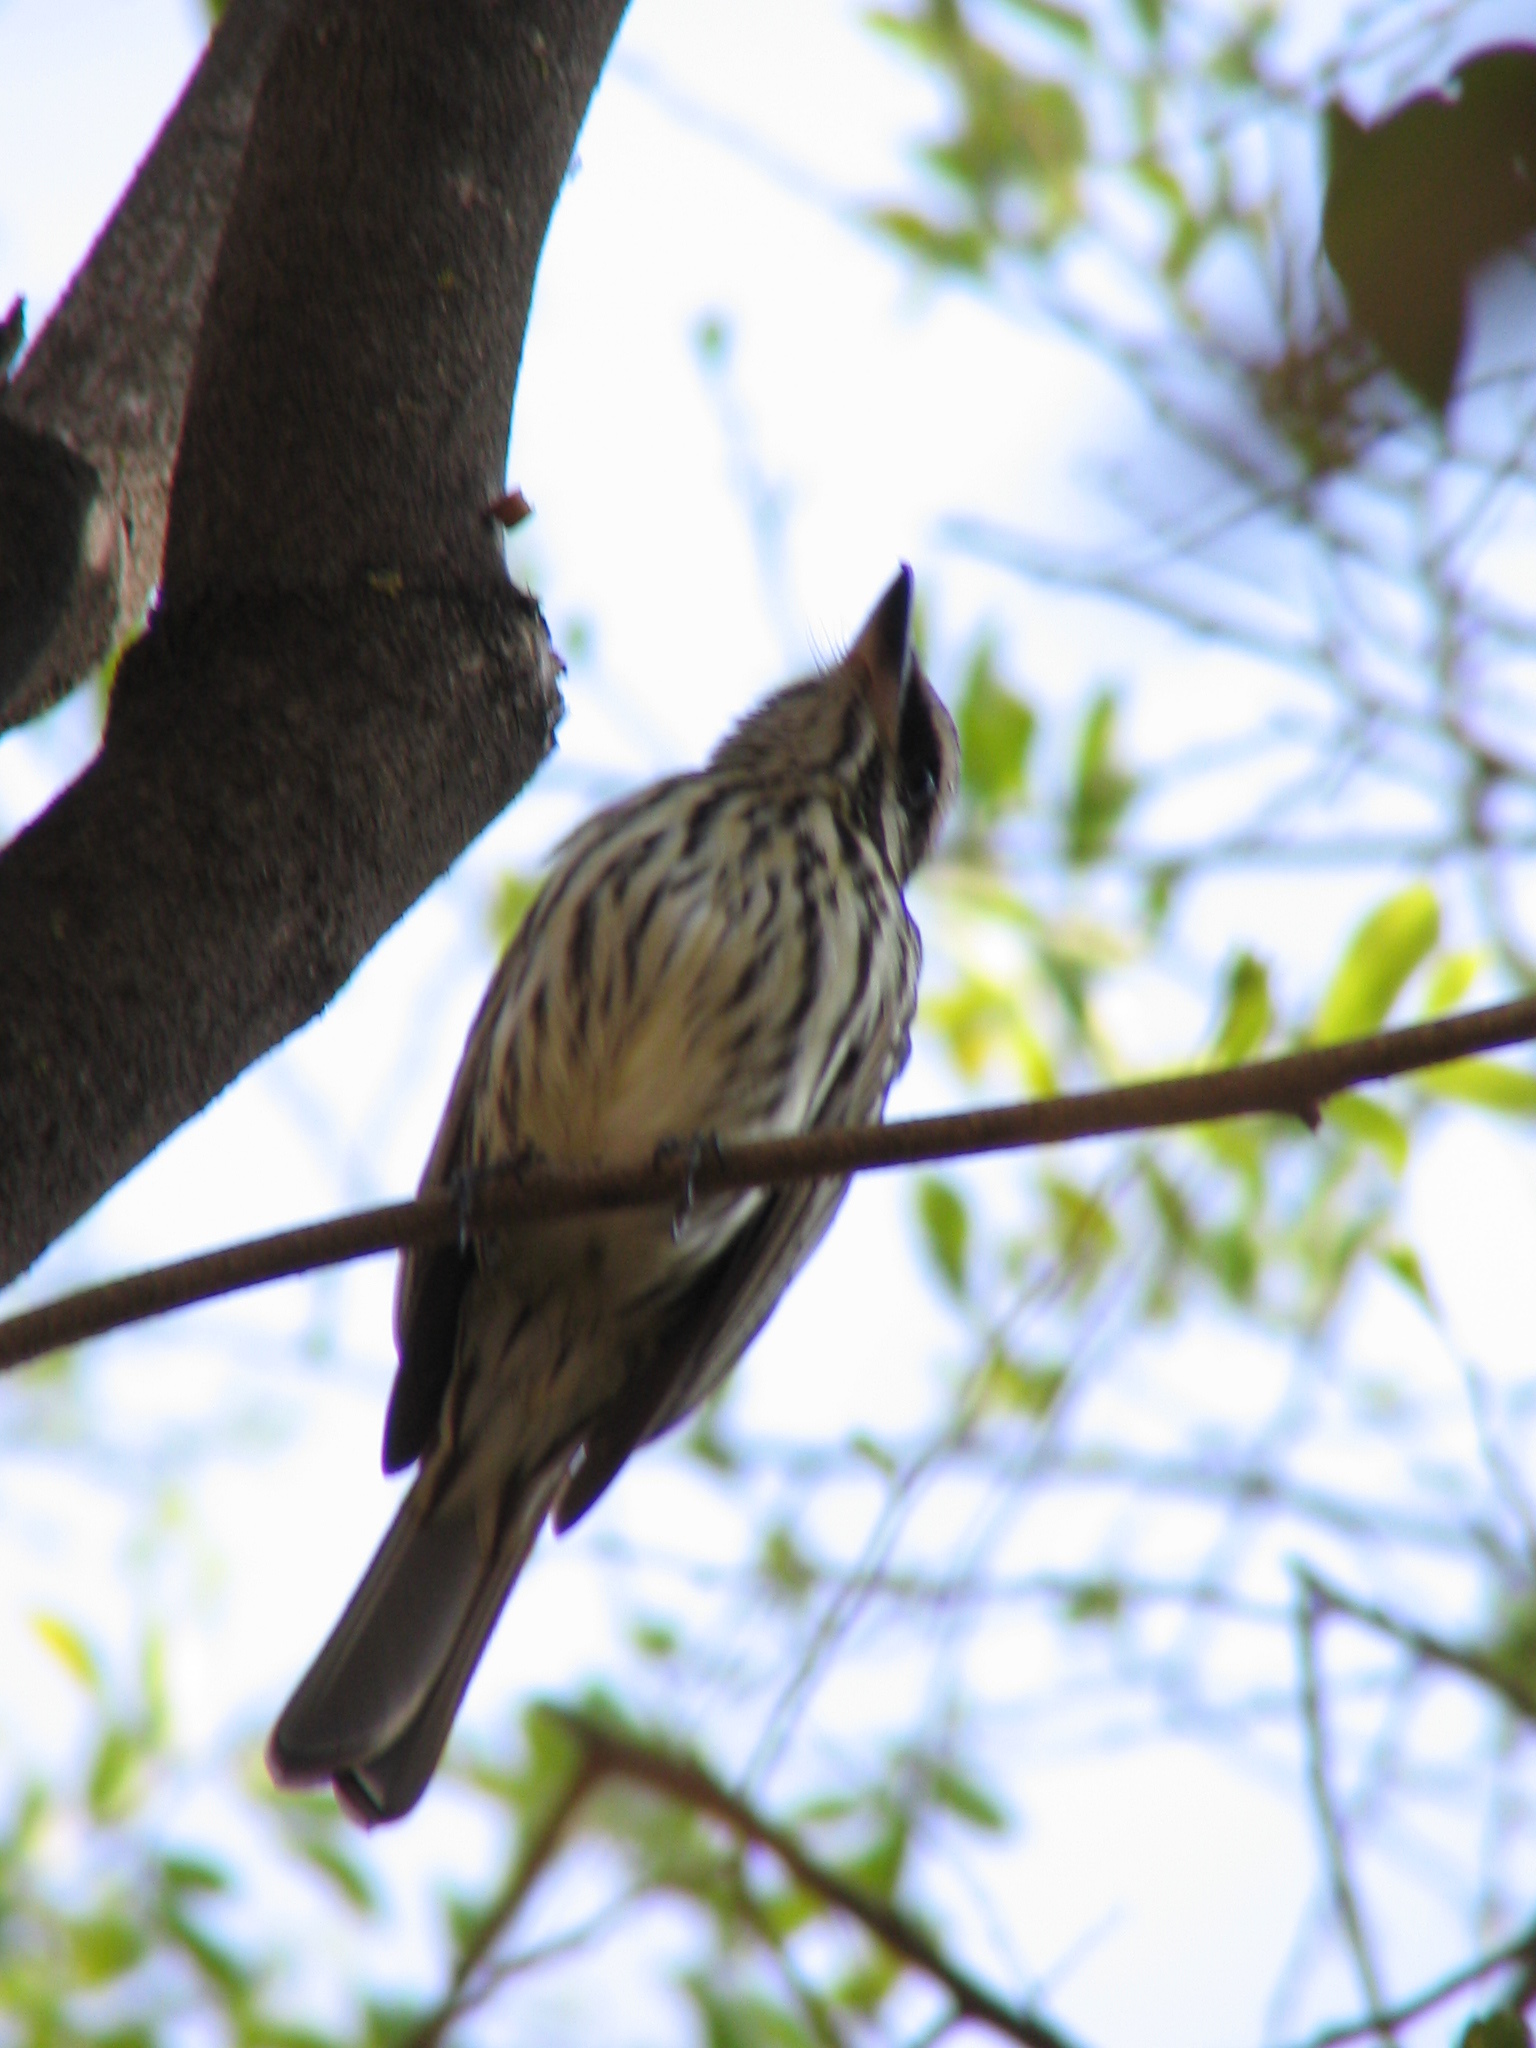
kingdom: Animalia
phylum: Chordata
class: Aves
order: Passeriformes
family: Tyrannidae
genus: Myiodynastes
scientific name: Myiodynastes maculatus
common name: Streaked flycatcher
